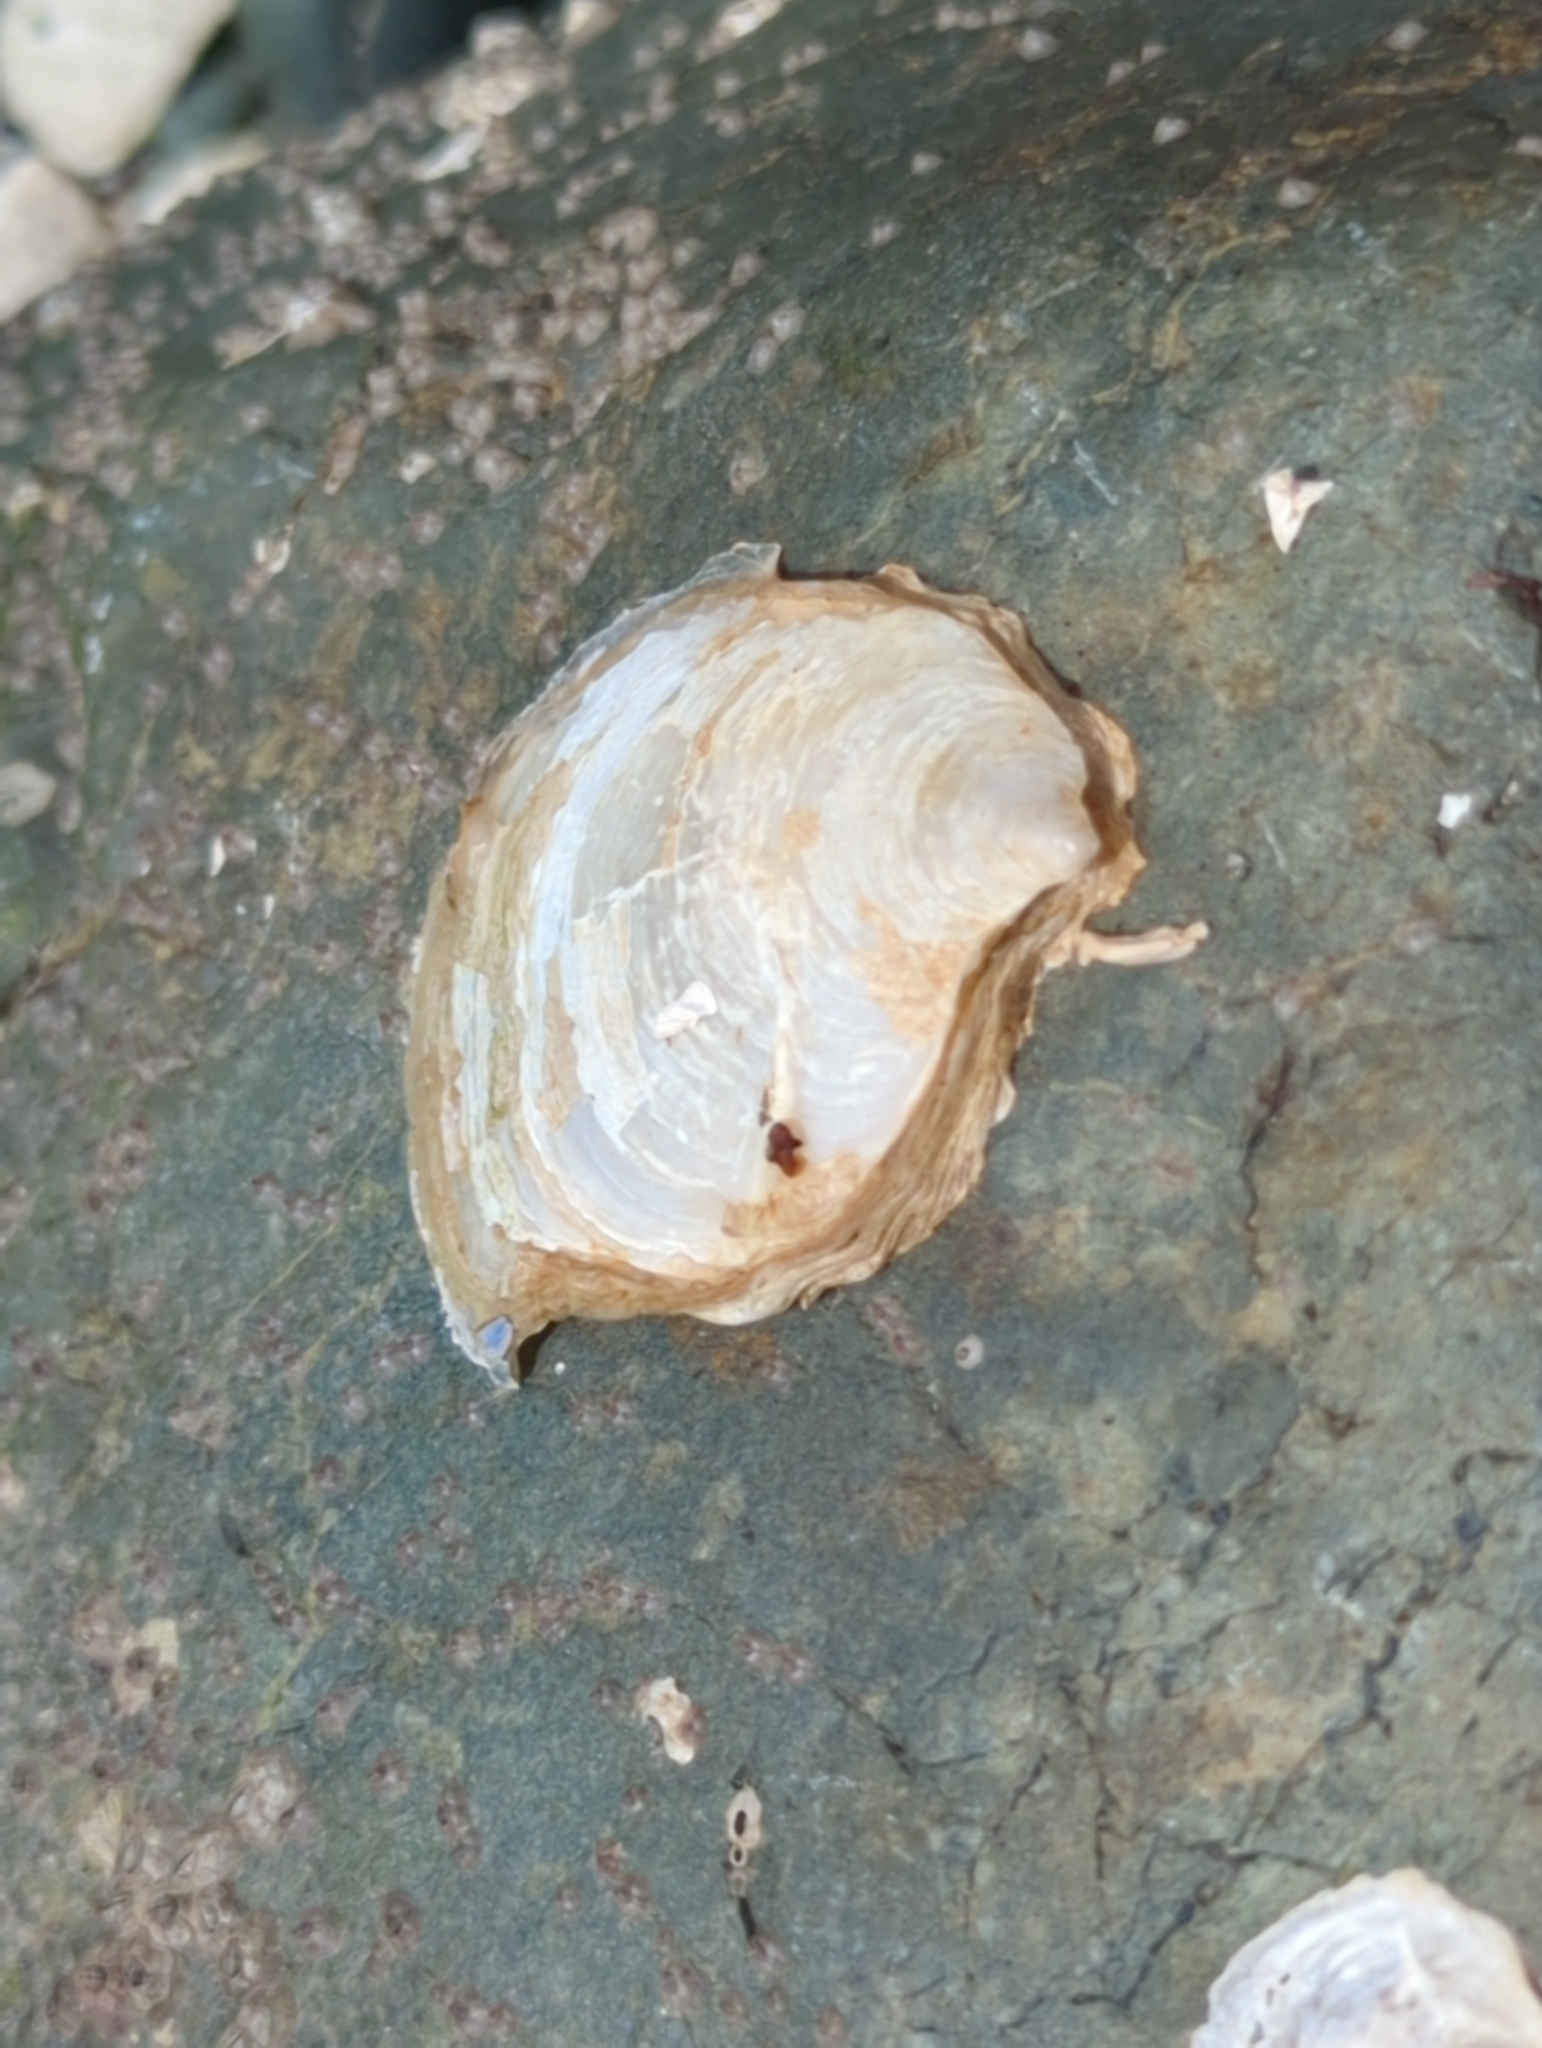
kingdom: Animalia
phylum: Mollusca
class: Bivalvia
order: Ostreida
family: Ostreidae
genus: Ostrea
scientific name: Ostrea lurida
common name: Olympia flat oyster
